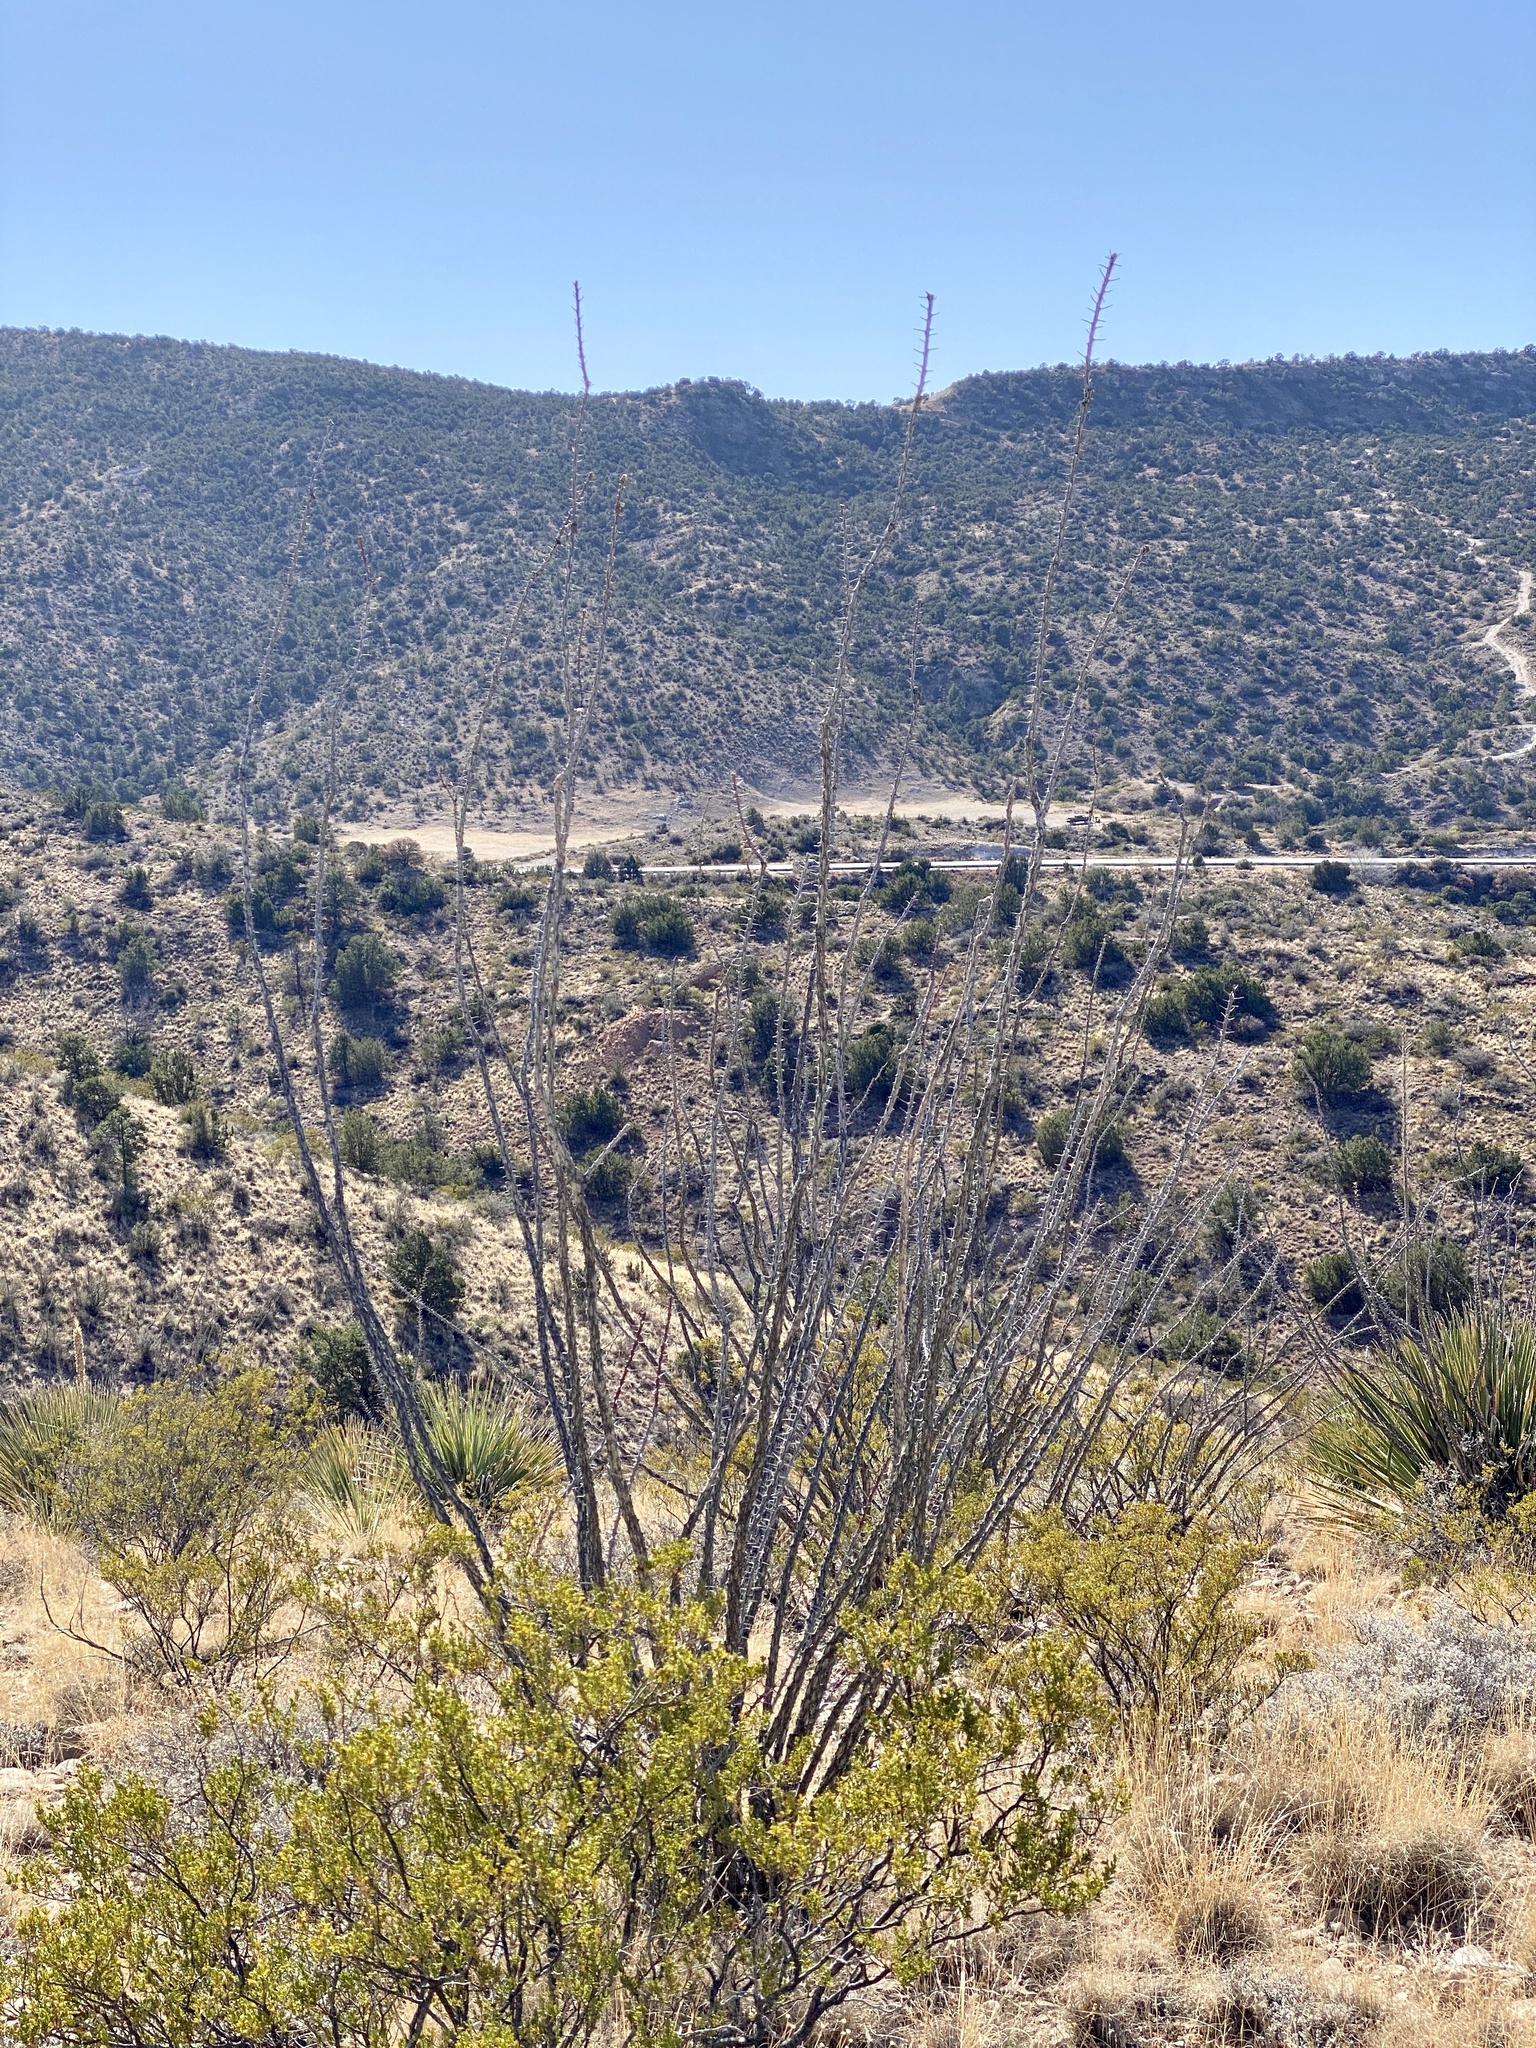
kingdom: Plantae
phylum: Tracheophyta
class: Magnoliopsida
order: Ericales
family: Fouquieriaceae
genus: Fouquieria
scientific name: Fouquieria splendens
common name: Vine-cactus
